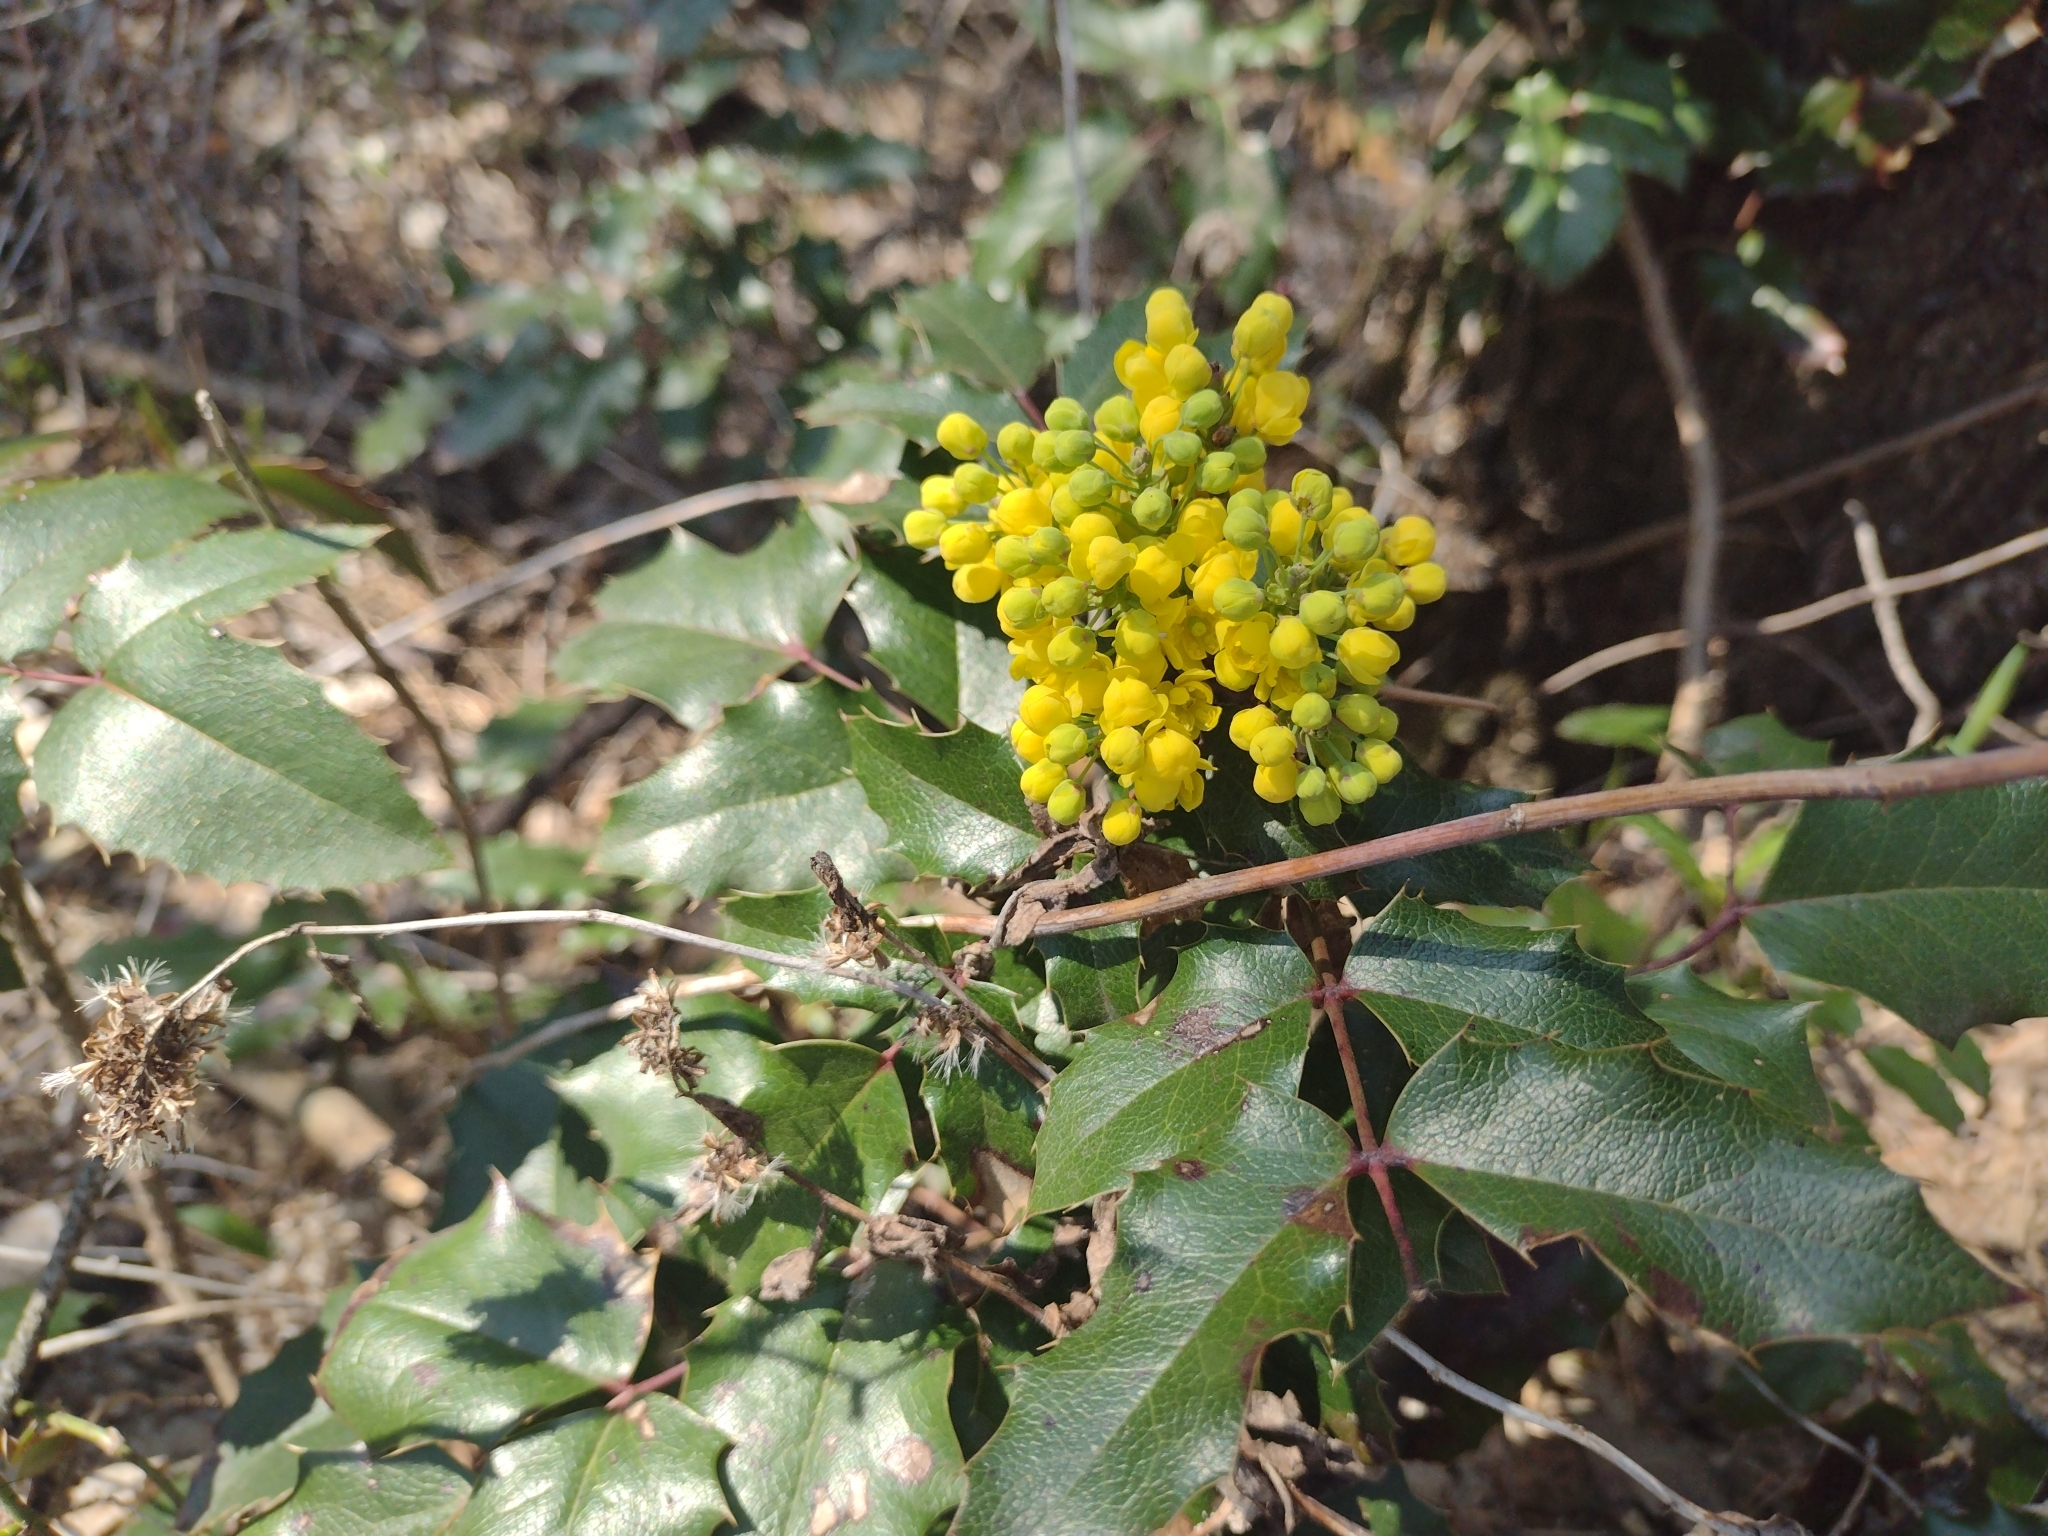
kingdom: Plantae
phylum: Tracheophyta
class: Magnoliopsida
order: Ranunculales
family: Berberidaceae
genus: Mahonia
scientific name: Mahonia aquifolium
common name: Oregon-grape
